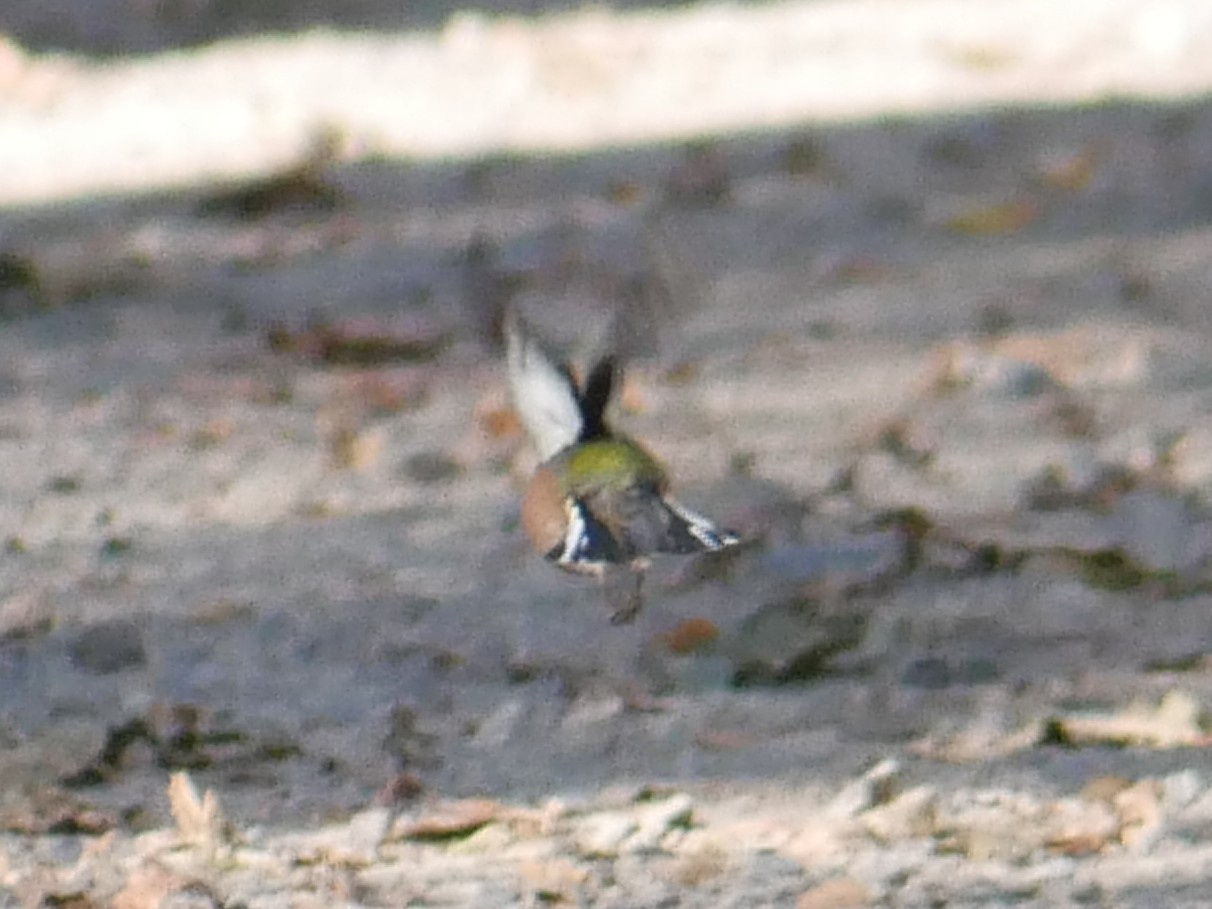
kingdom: Animalia
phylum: Chordata
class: Aves
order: Passeriformes
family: Fringillidae
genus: Fringilla
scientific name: Fringilla coelebs
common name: Common chaffinch
